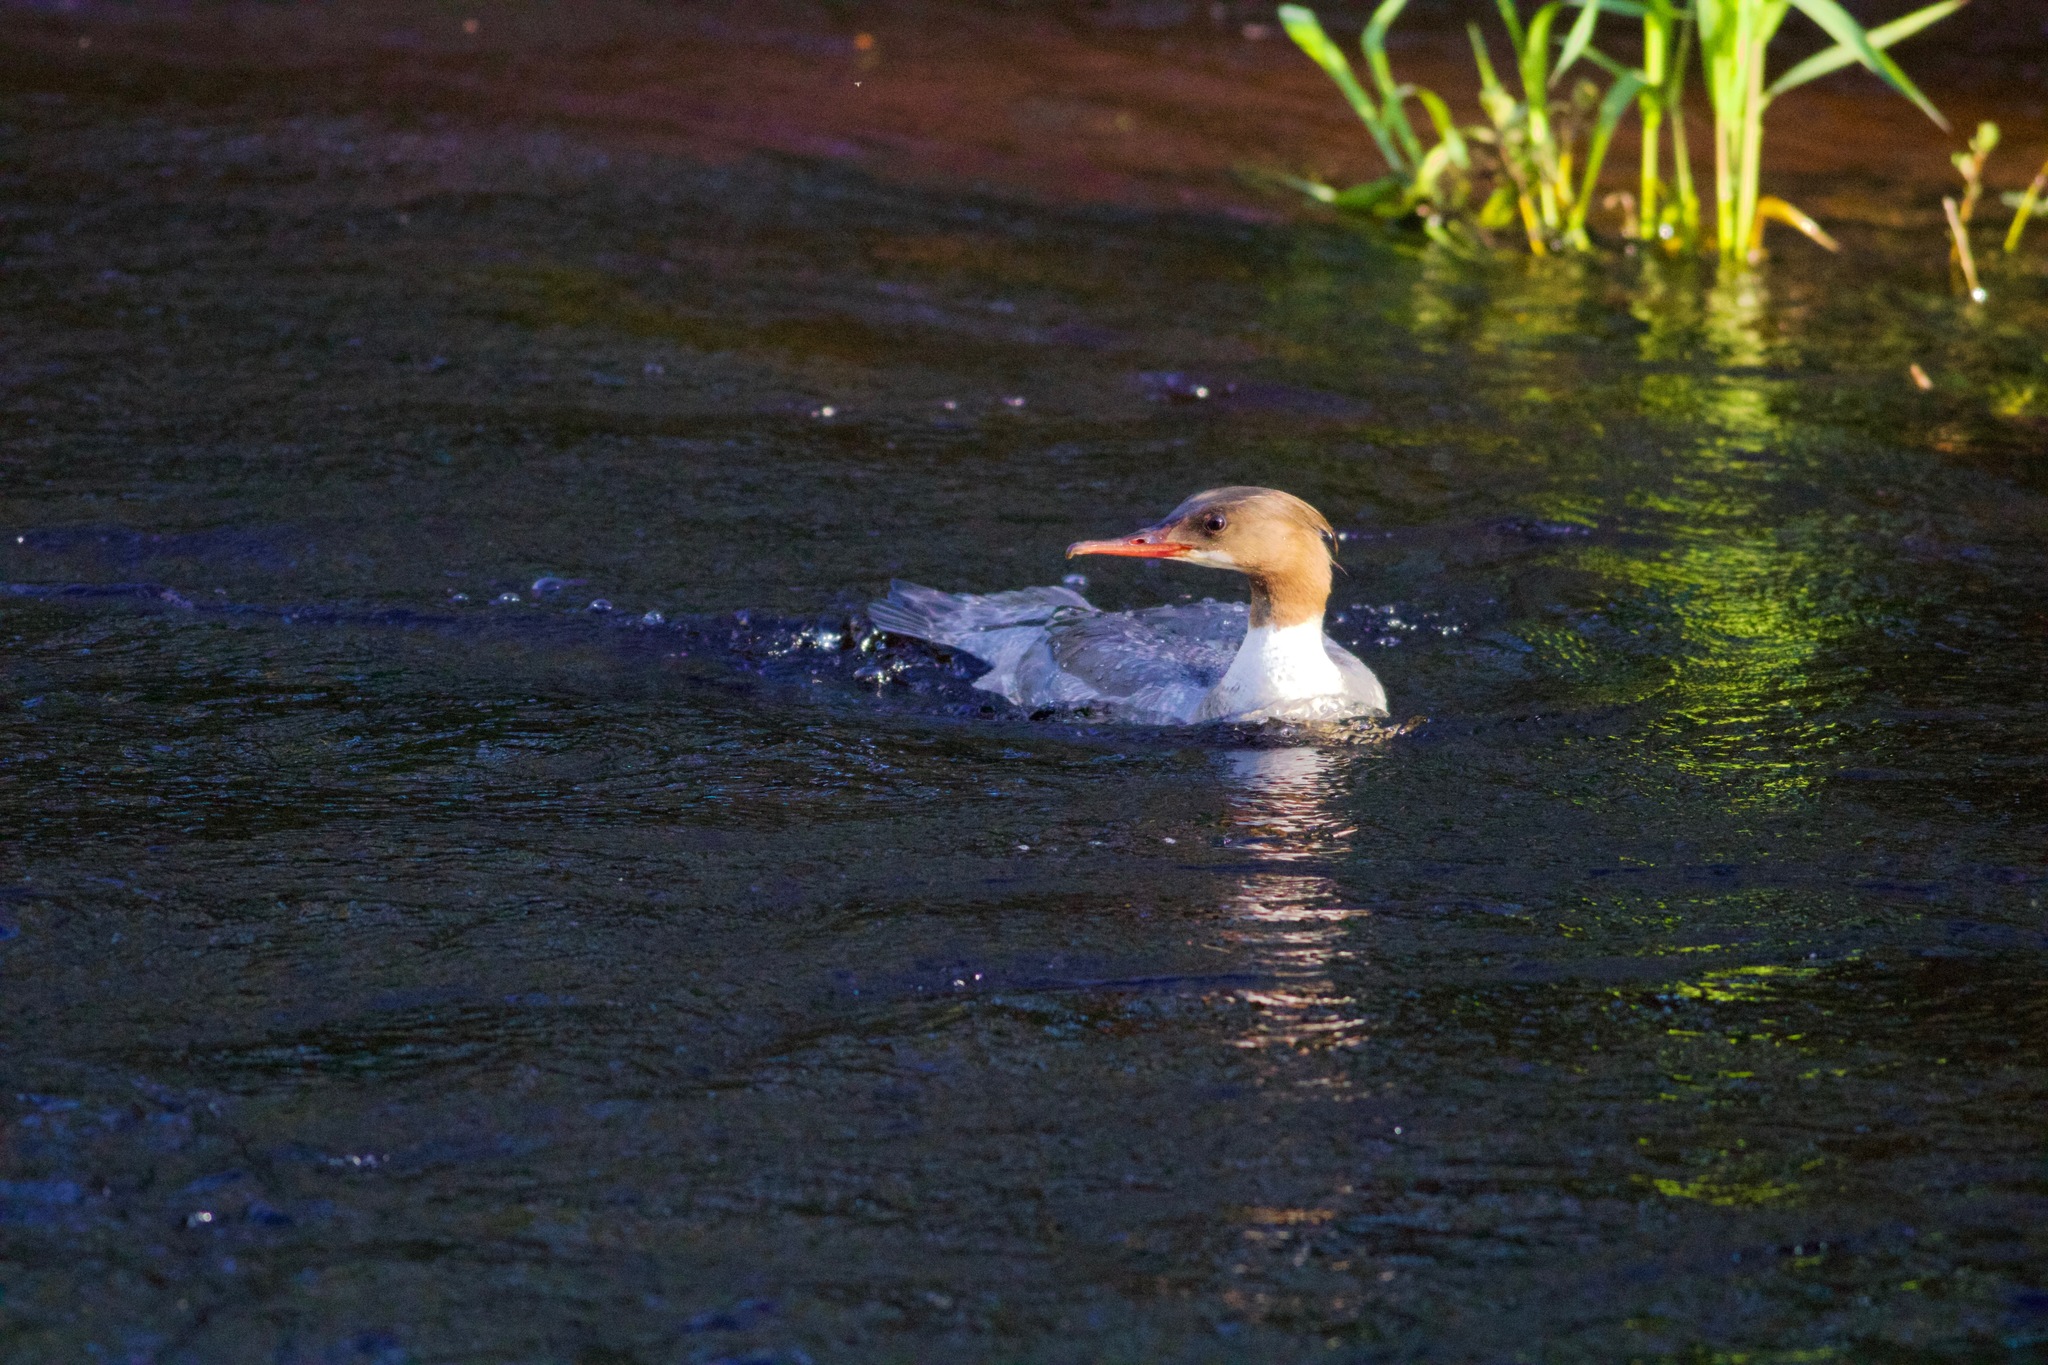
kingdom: Animalia
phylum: Chordata
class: Aves
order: Anseriformes
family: Anatidae
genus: Mergus
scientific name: Mergus merganser
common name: Common merganser
